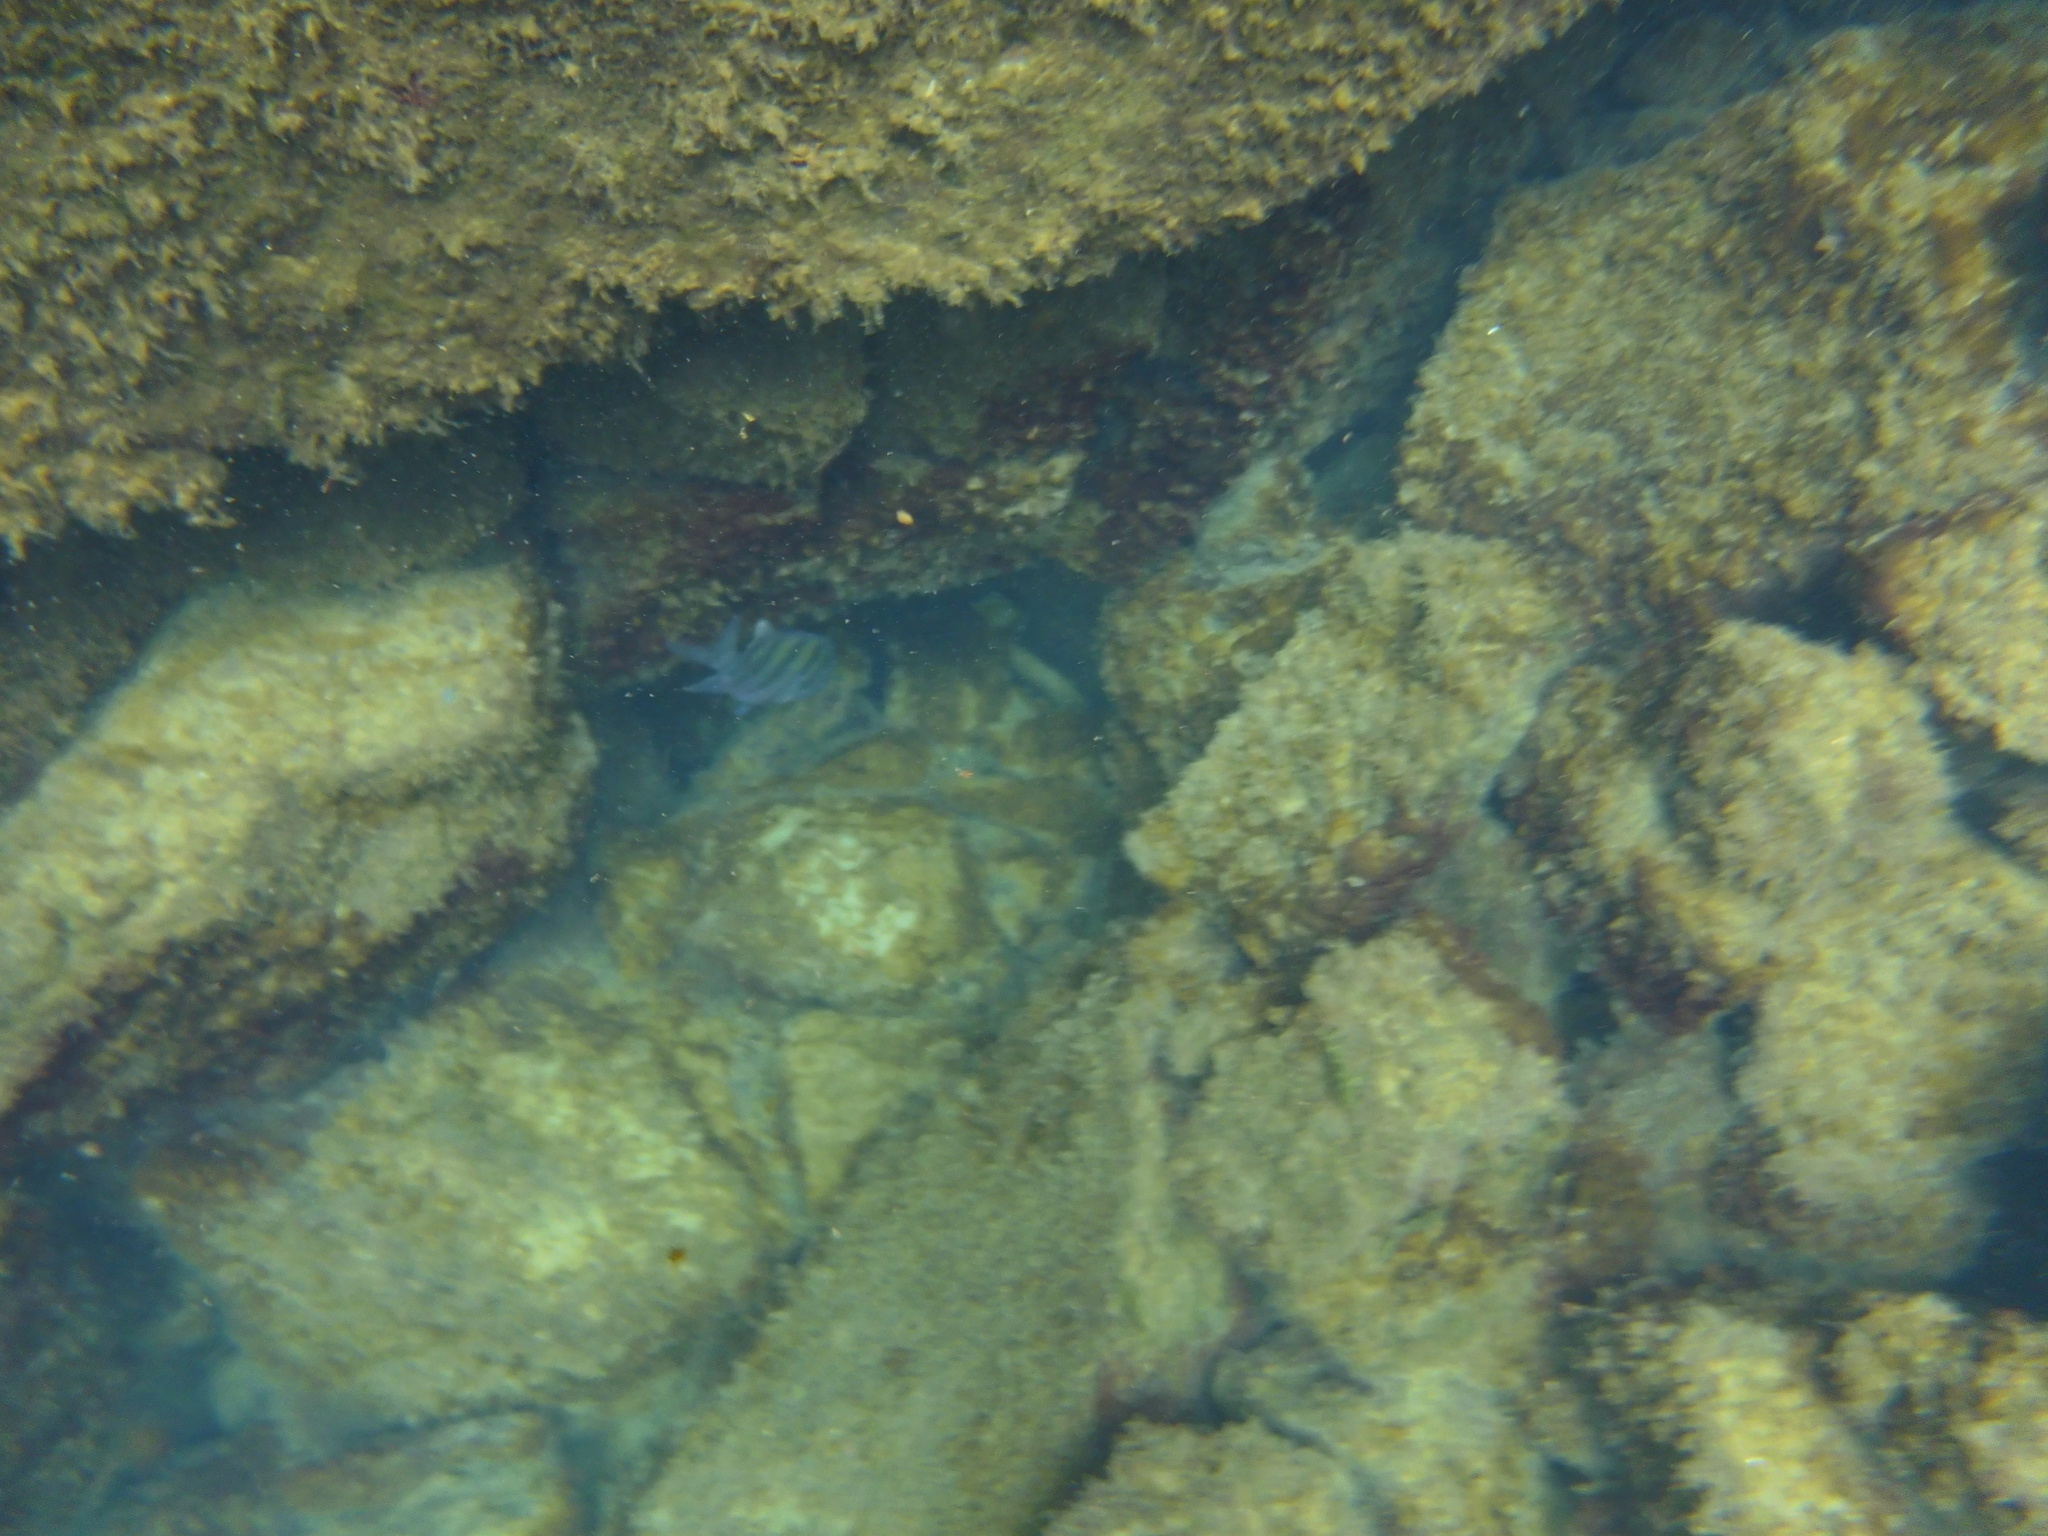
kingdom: Animalia
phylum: Chordata
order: Perciformes
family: Pomacentridae
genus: Abudefduf
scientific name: Abudefduf troschelii
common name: Panamic sergeant major
